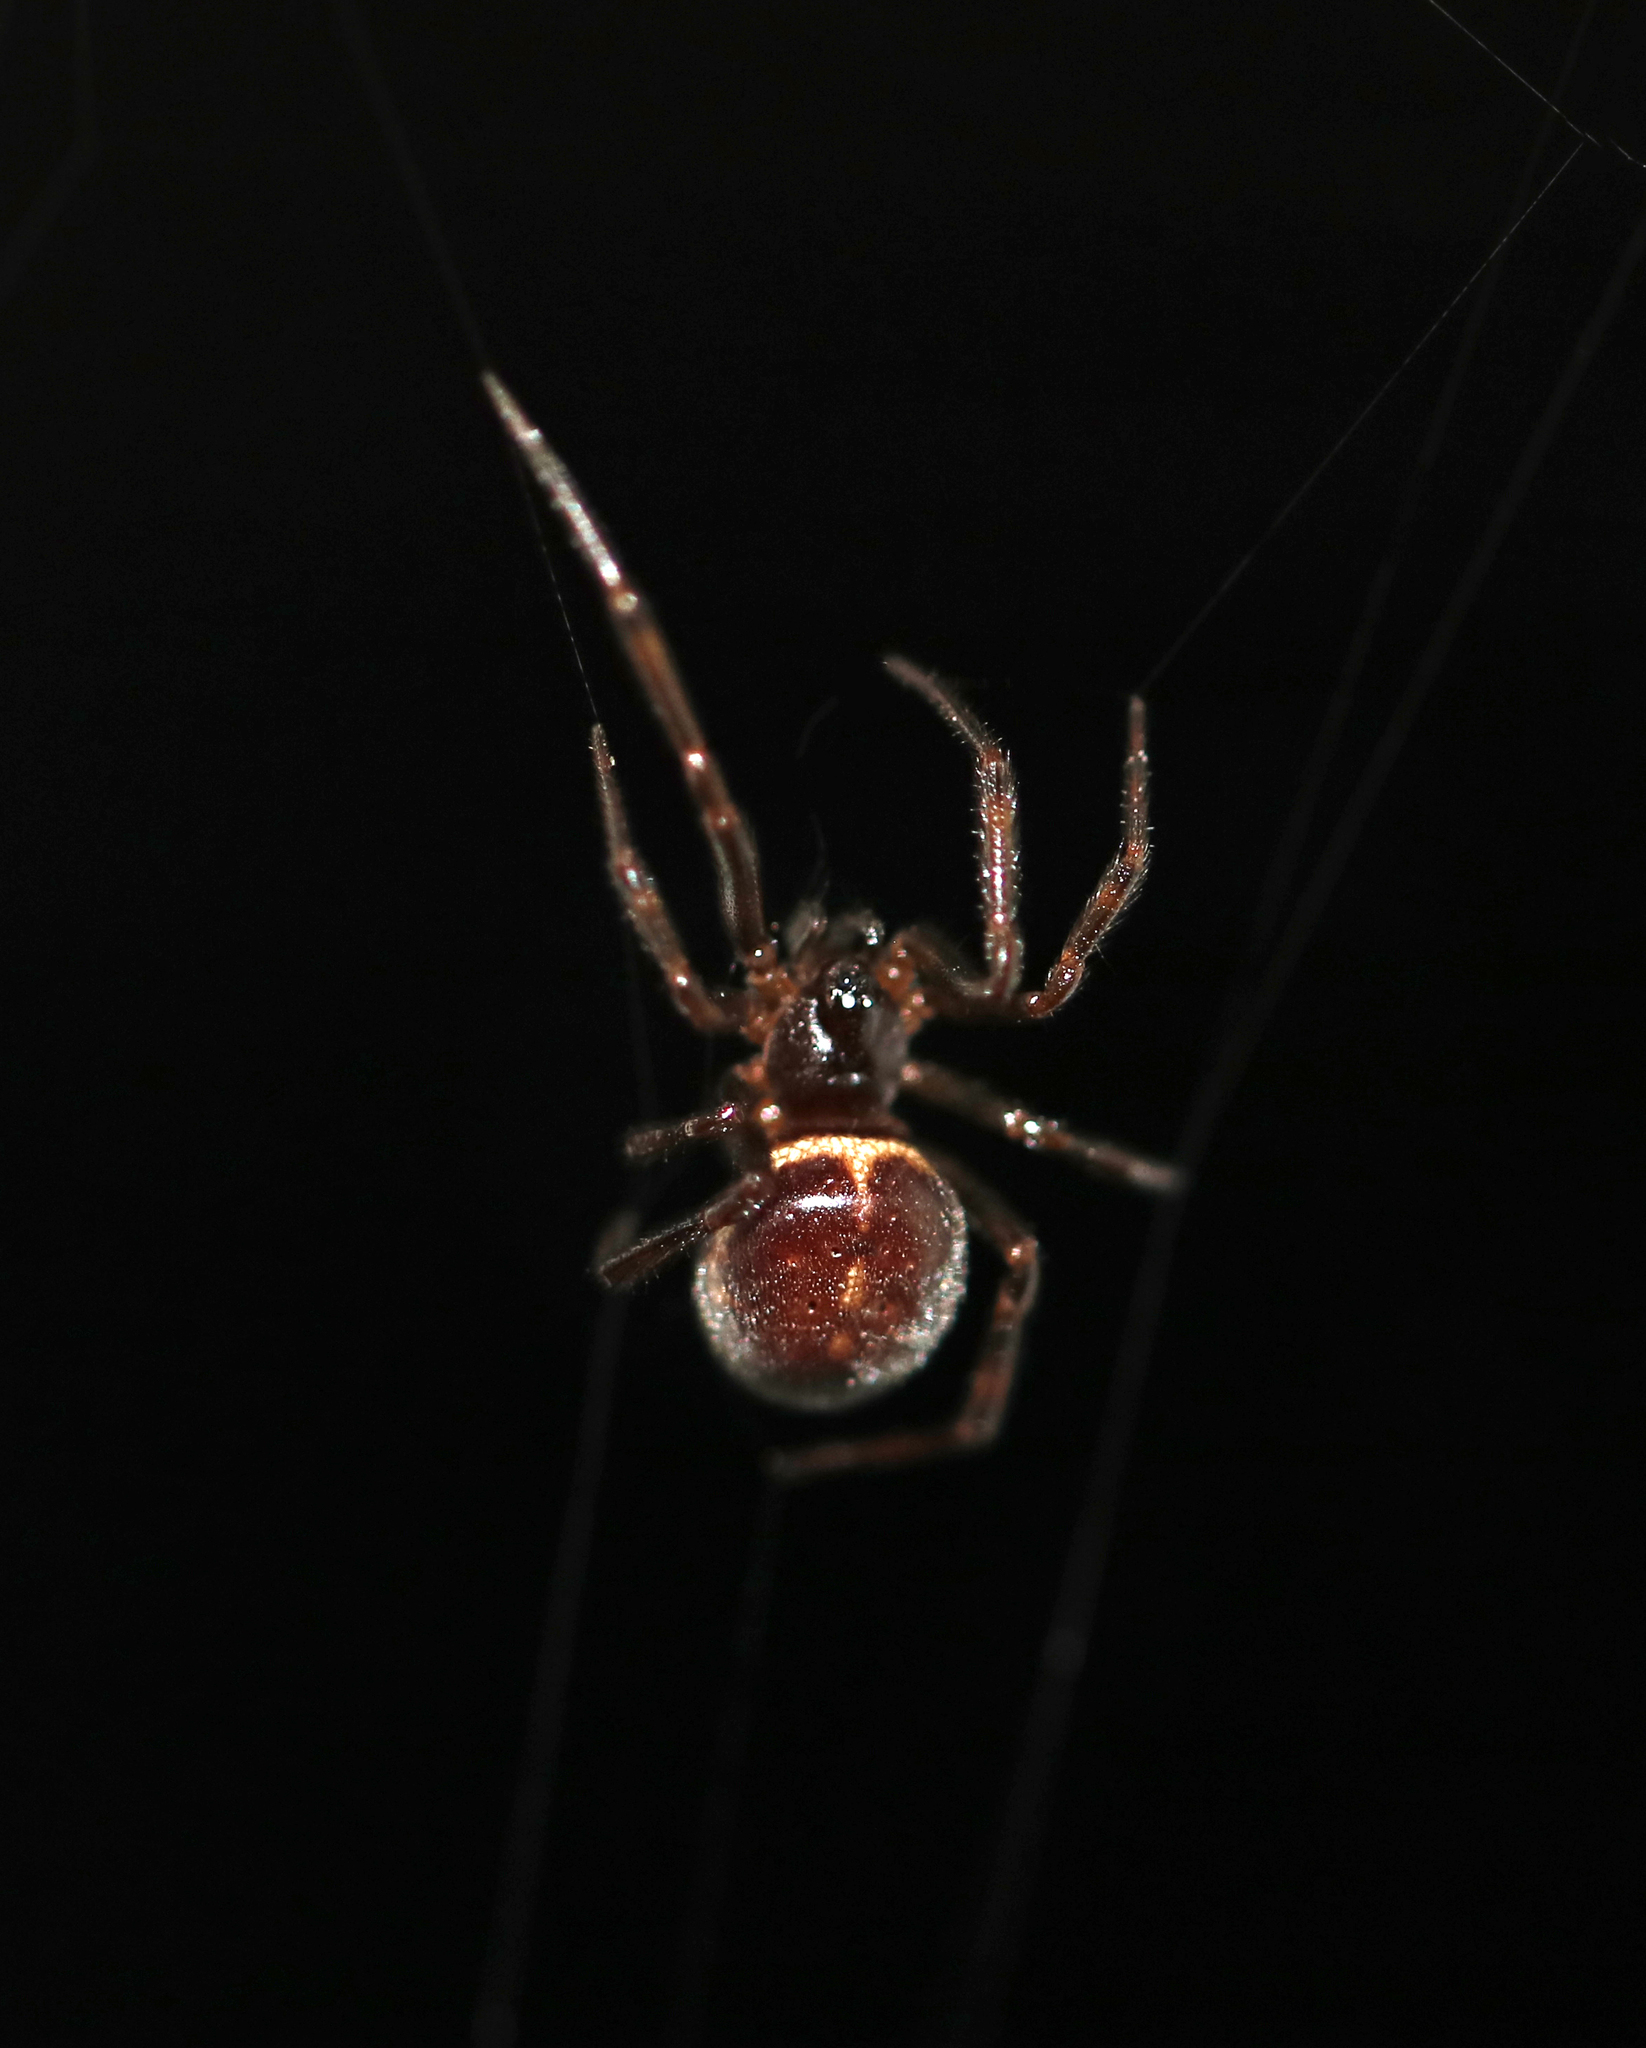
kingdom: Animalia
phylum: Arthropoda
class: Arachnida
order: Araneae
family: Theridiidae
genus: Steatoda
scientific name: Steatoda borealis
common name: Boreal combfoot
